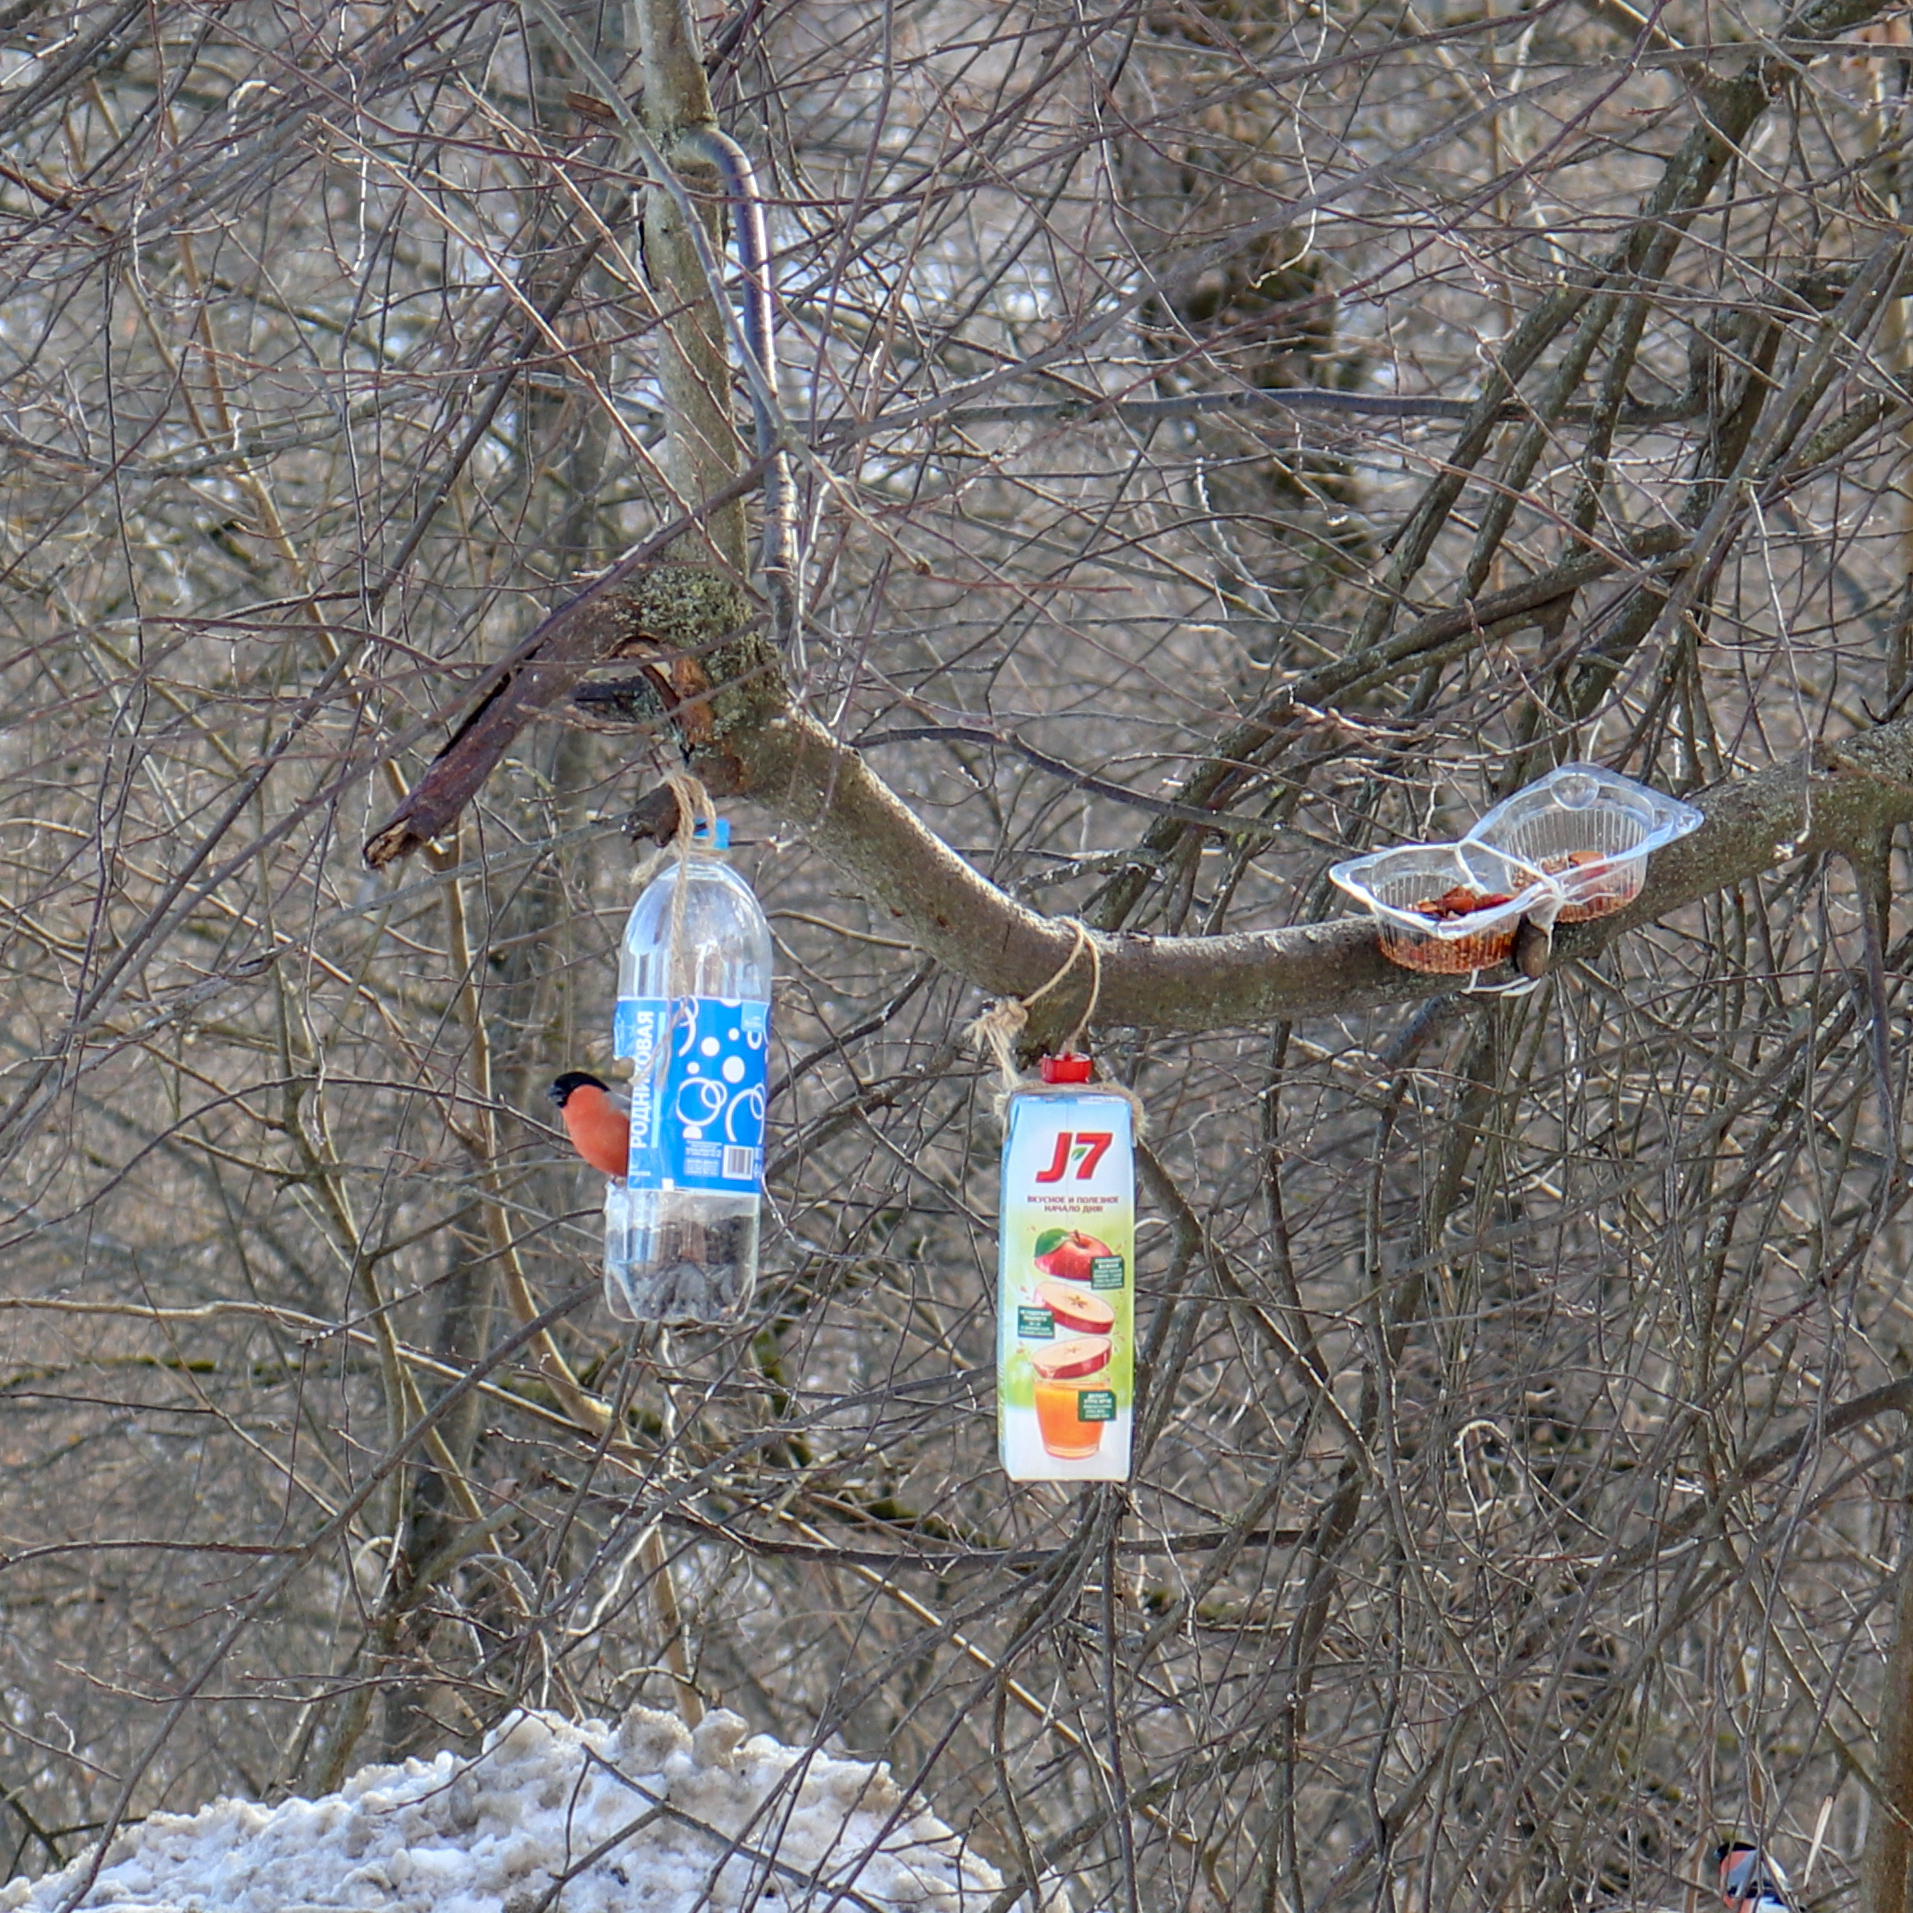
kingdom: Animalia
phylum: Chordata
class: Aves
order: Passeriformes
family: Fringillidae
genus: Pyrrhula
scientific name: Pyrrhula pyrrhula
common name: Eurasian bullfinch
